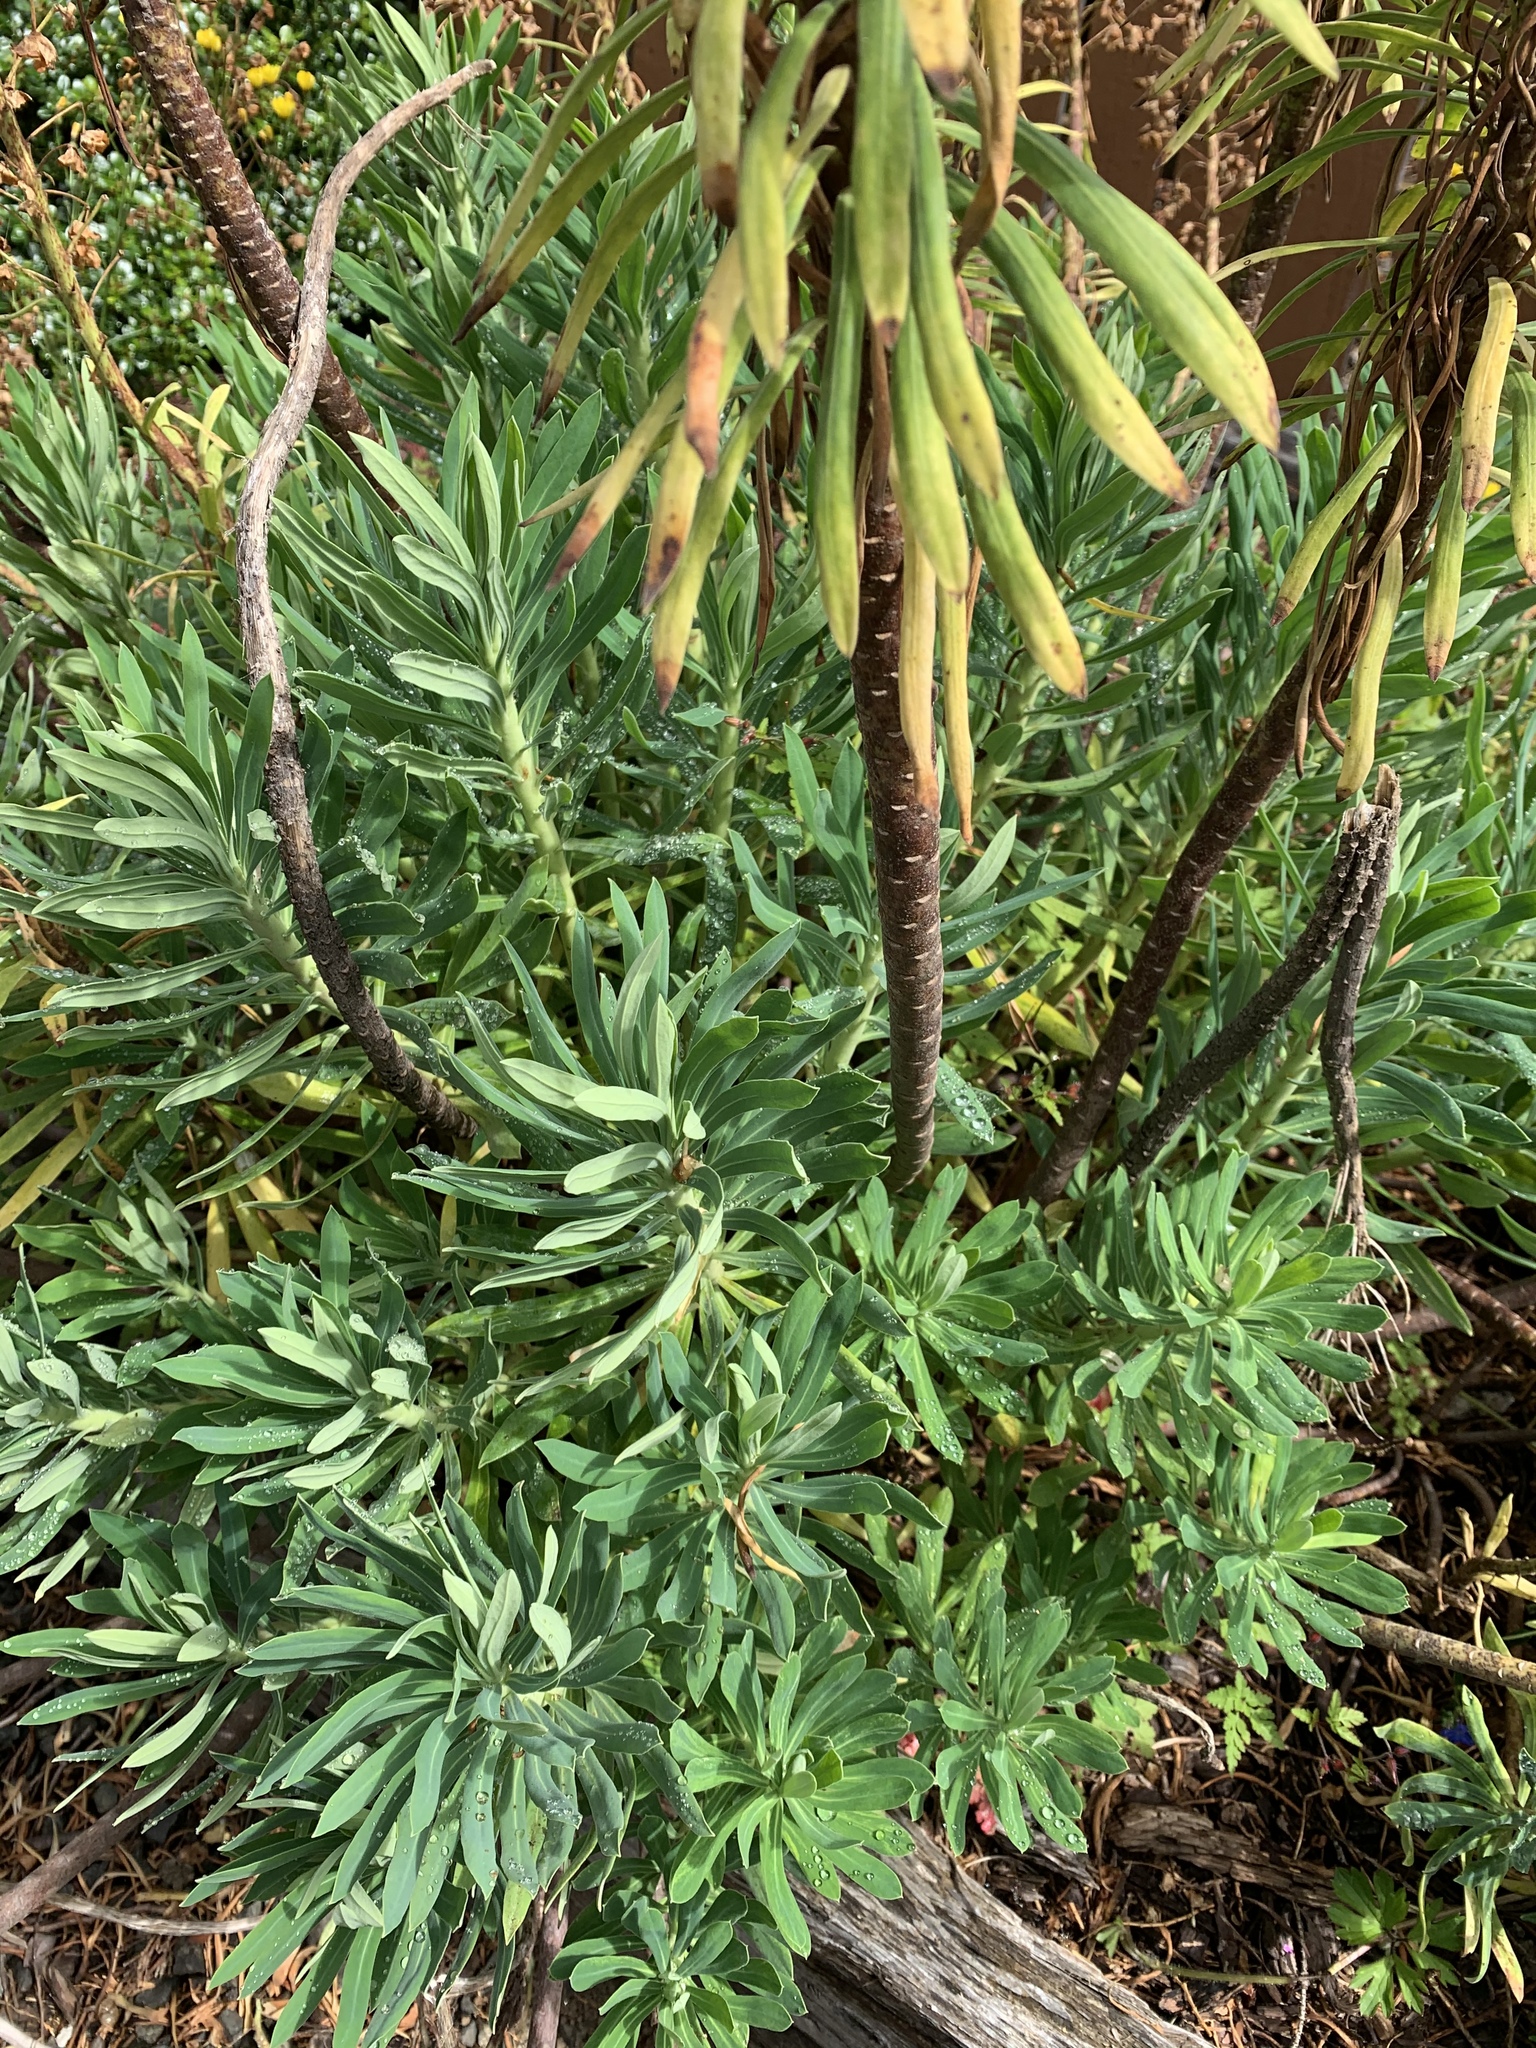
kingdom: Plantae
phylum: Tracheophyta
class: Magnoliopsida
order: Malpighiales
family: Euphorbiaceae
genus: Euphorbia
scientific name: Euphorbia characias
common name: Mediterranean spurge
